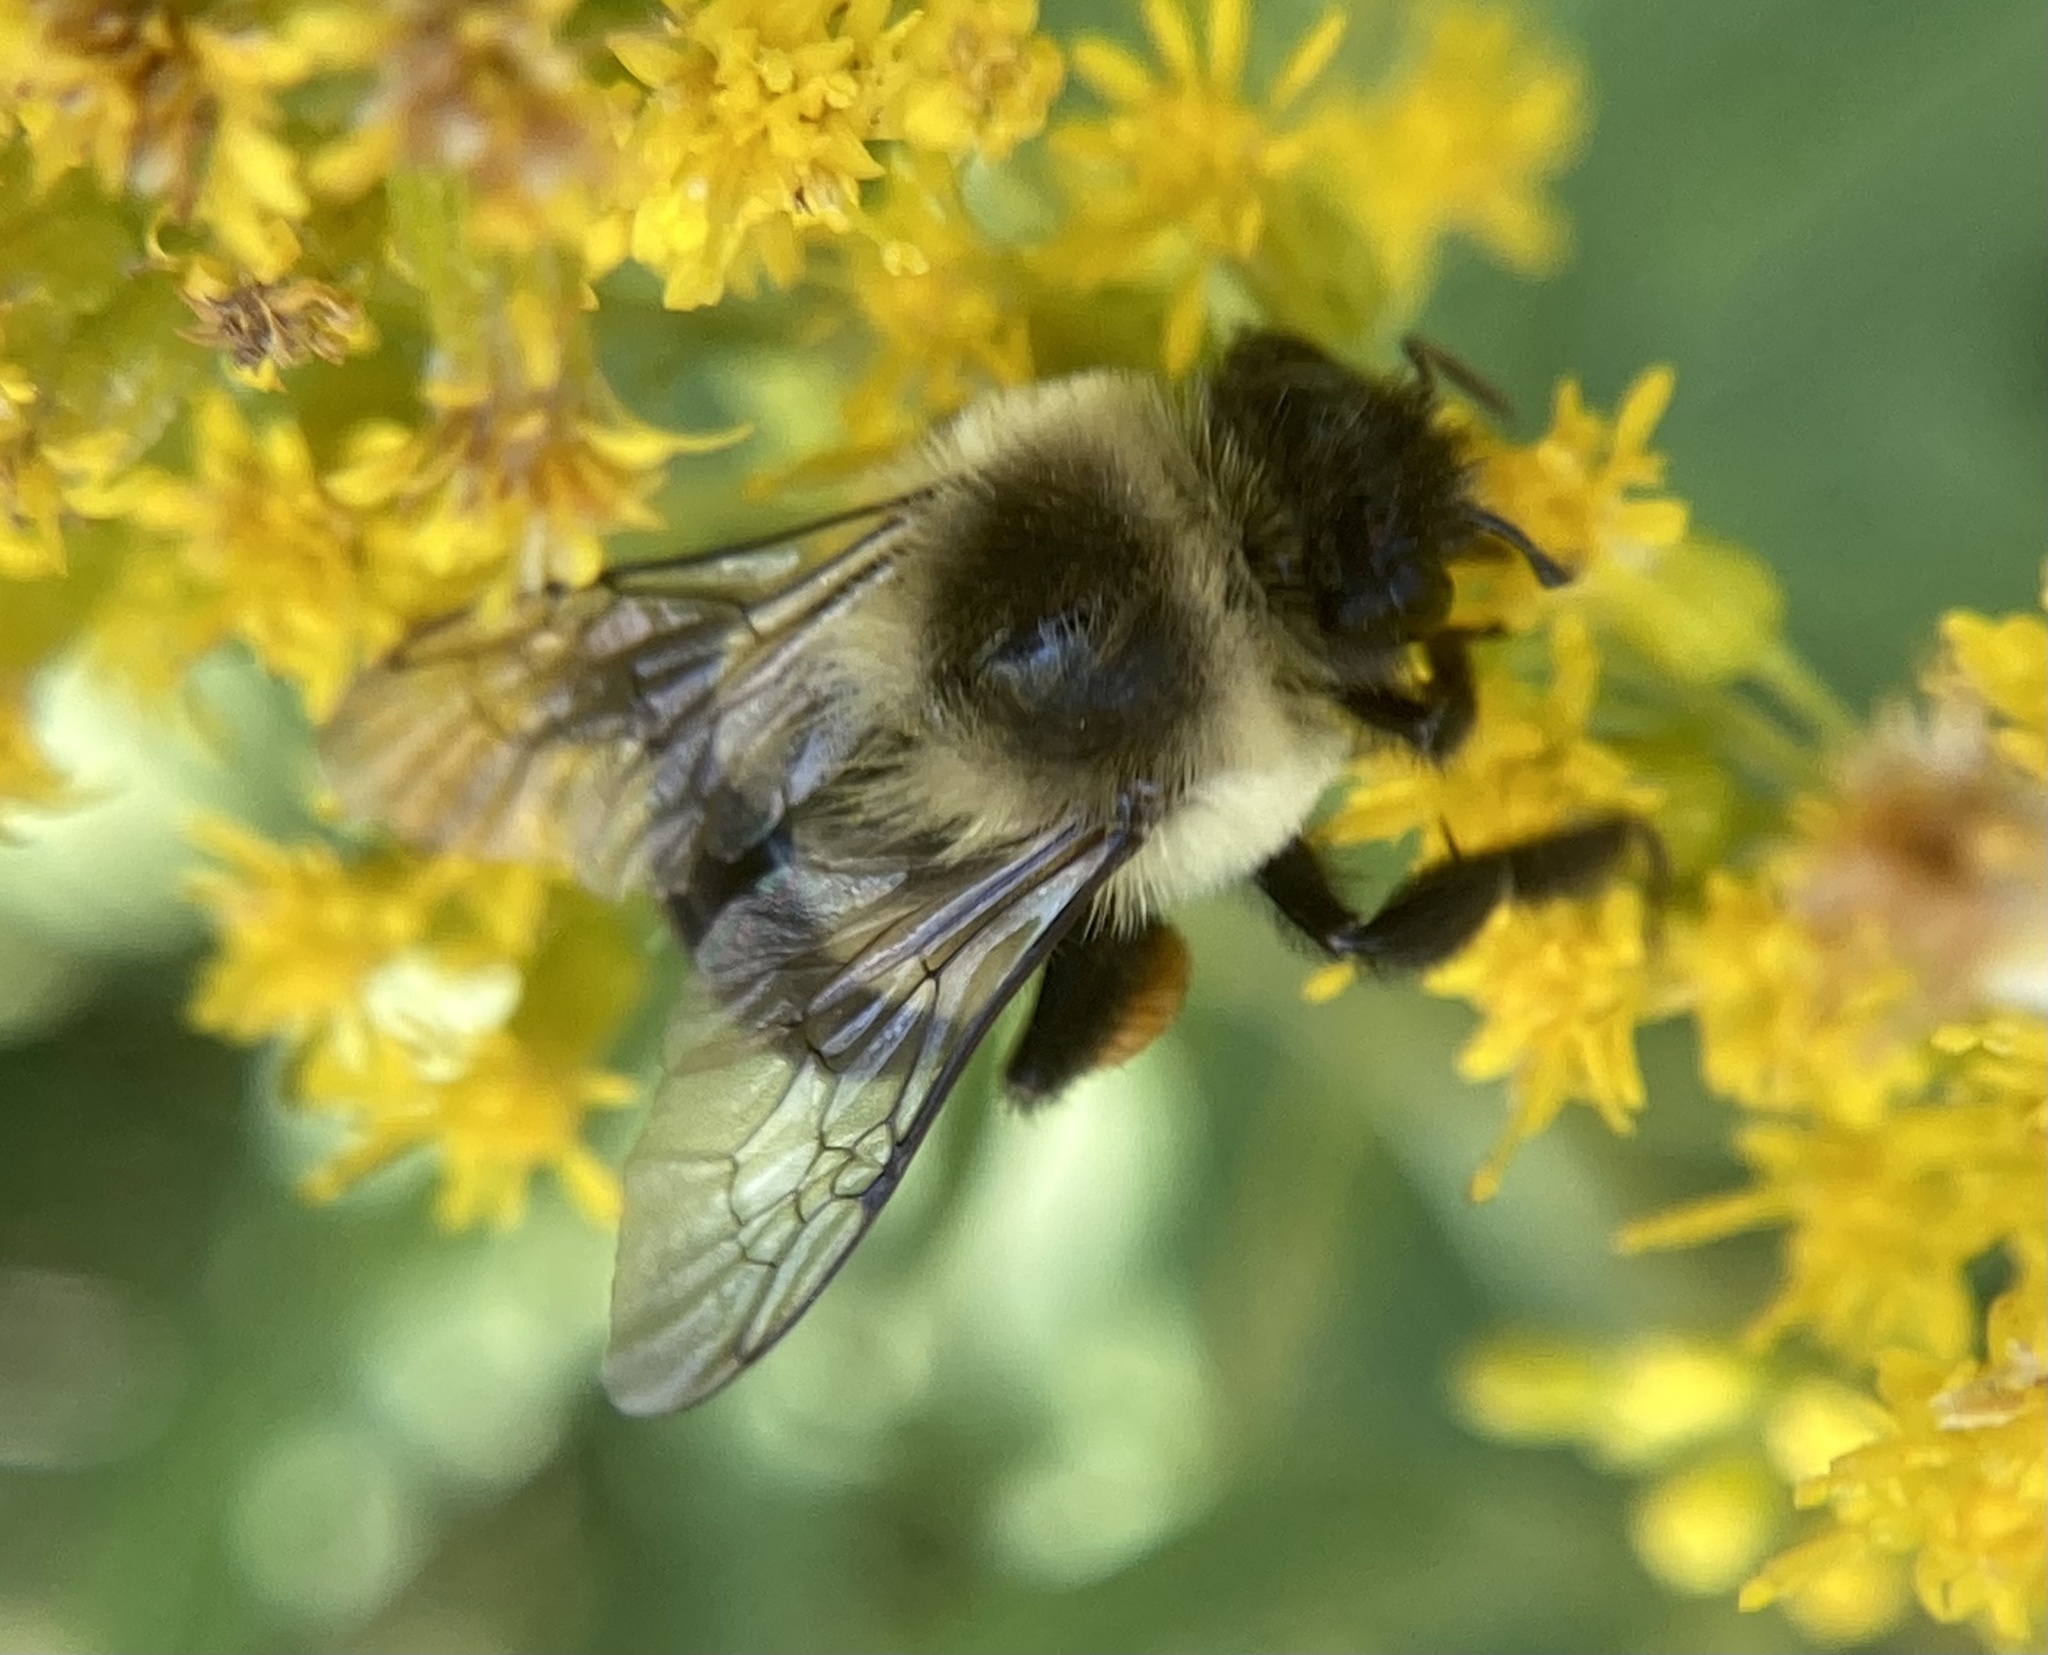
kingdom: Animalia
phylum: Arthropoda
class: Insecta
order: Hymenoptera
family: Apidae
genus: Bombus
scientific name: Bombus impatiens
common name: Common eastern bumble bee
